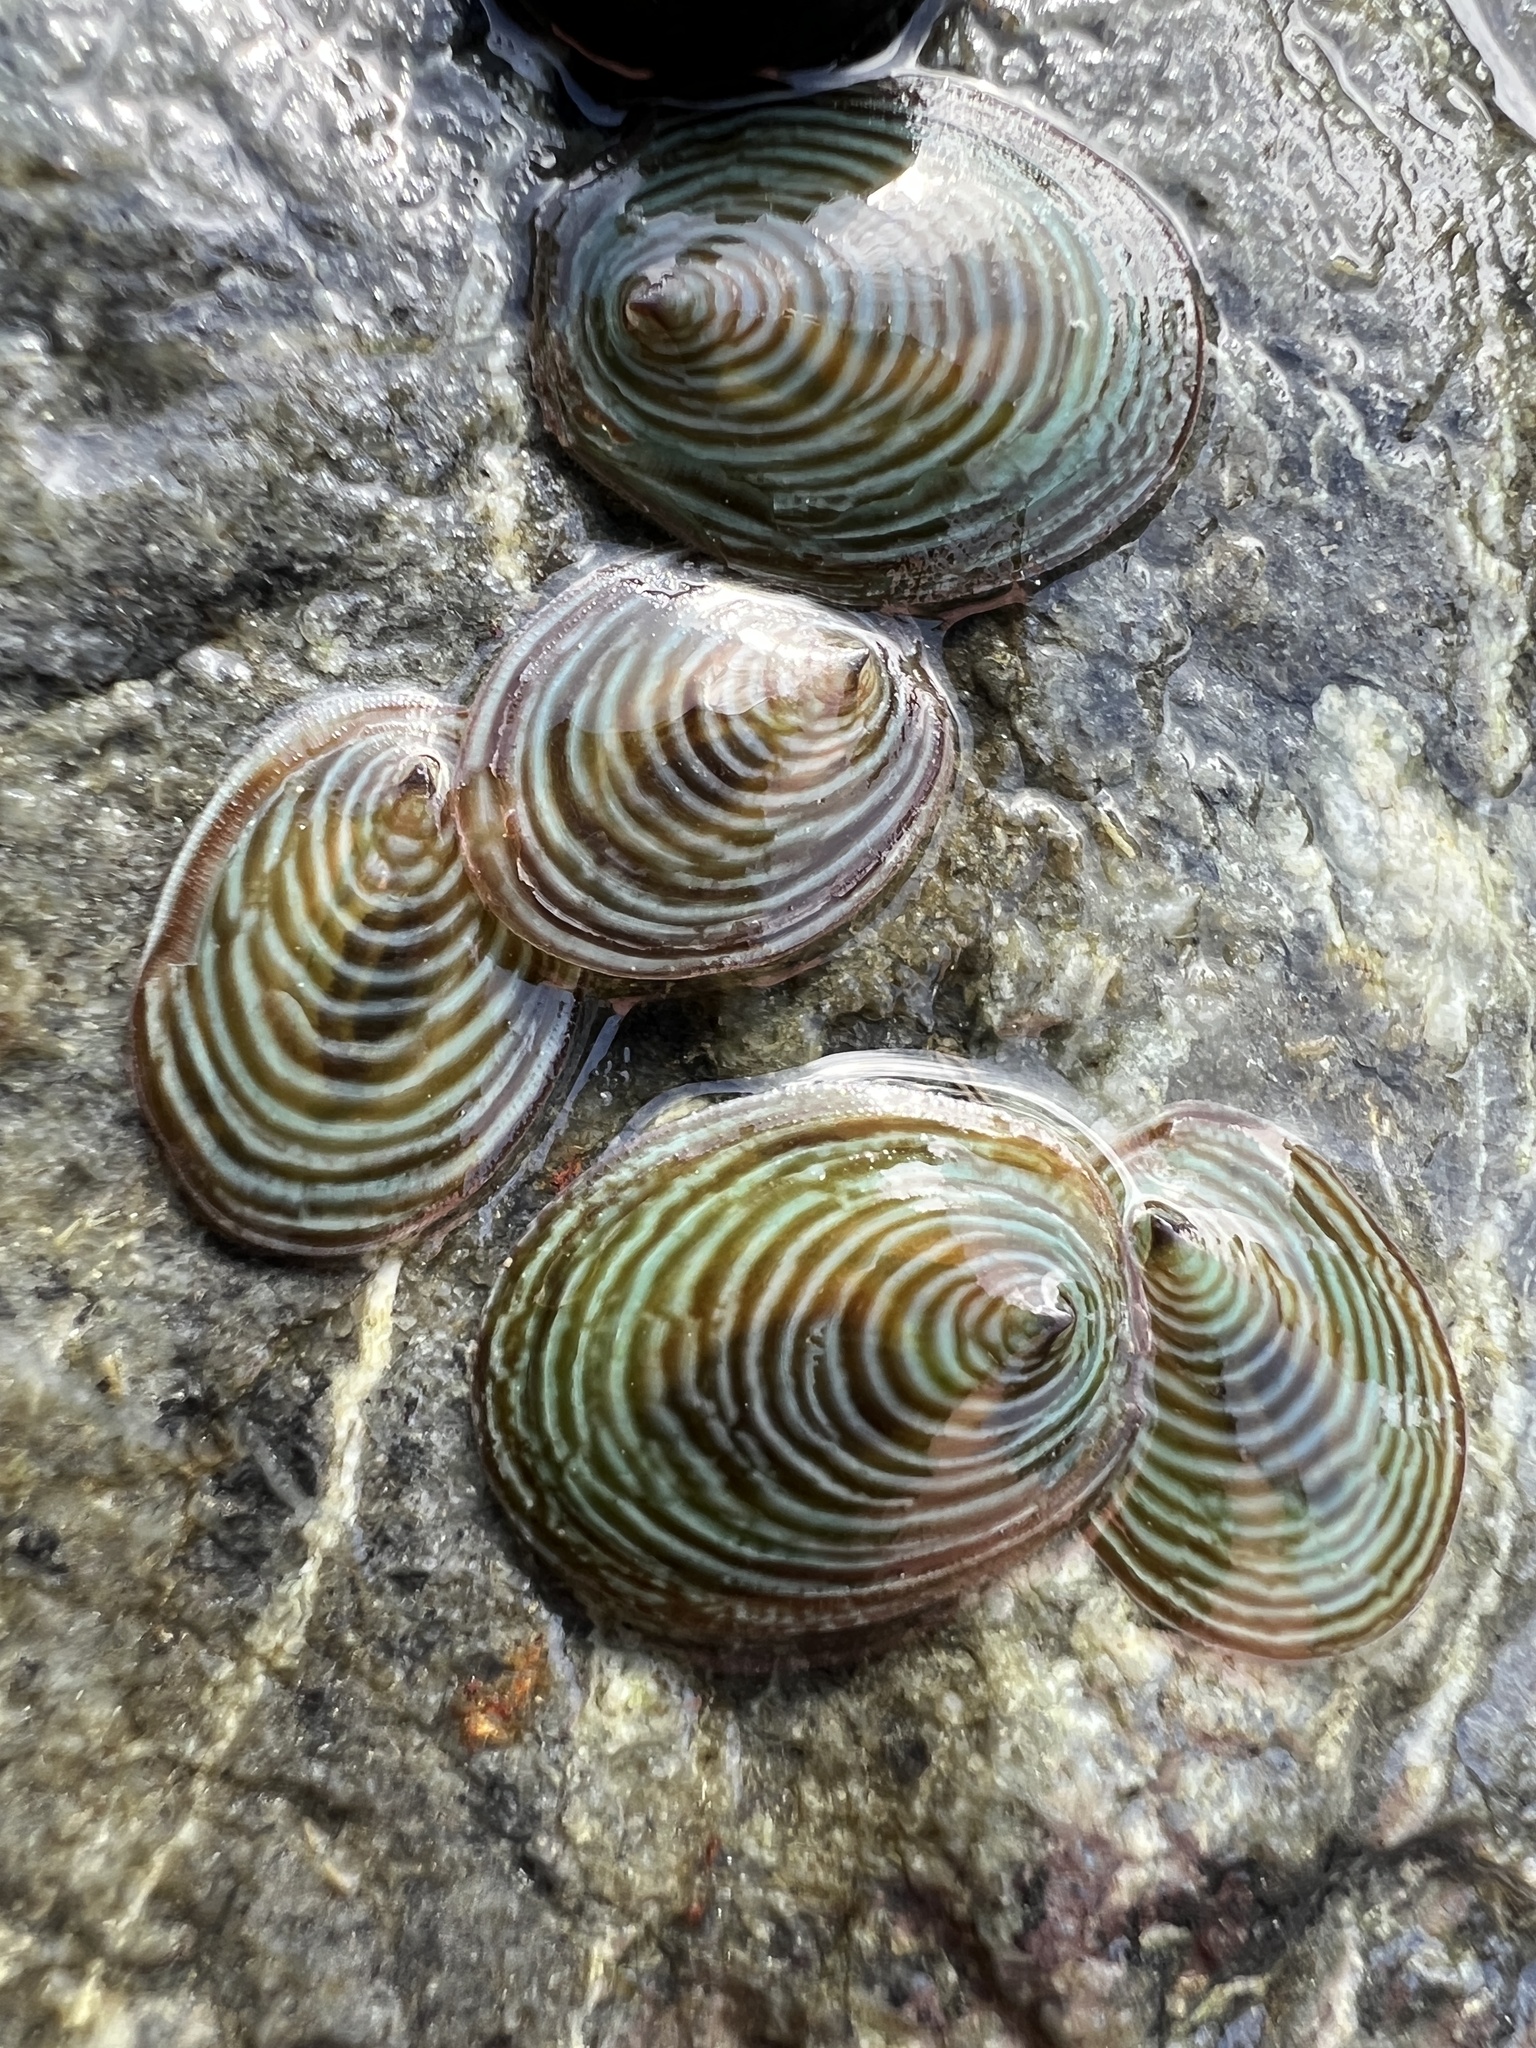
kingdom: Animalia
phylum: Mollusca
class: Gastropoda
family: Lottiidae
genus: Atalacmea
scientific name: Atalacmea fragilis
